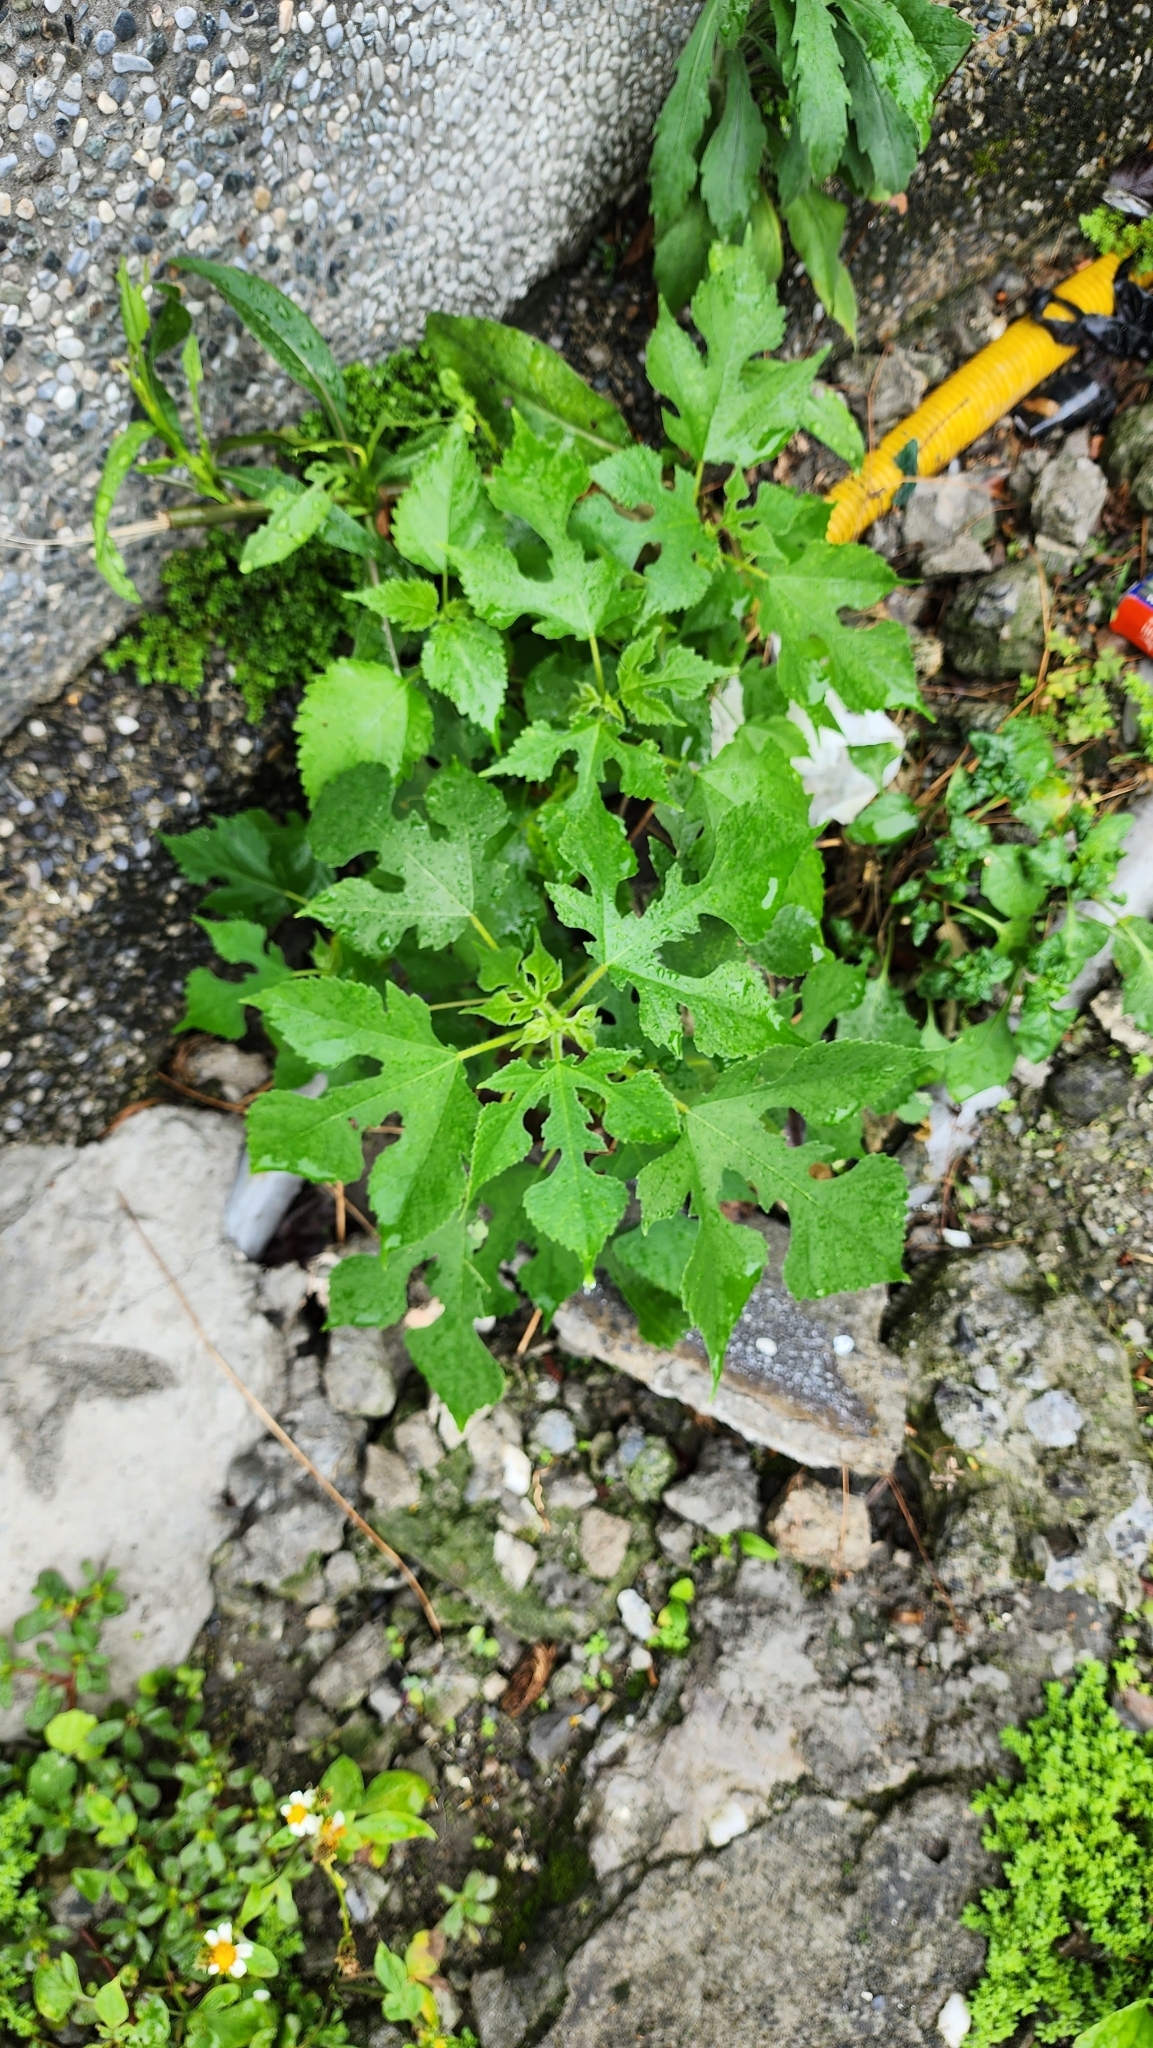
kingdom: Plantae
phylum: Tracheophyta
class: Magnoliopsida
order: Rosales
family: Moraceae
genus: Broussonetia
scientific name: Broussonetia papyrifera
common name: Paper mulberry
